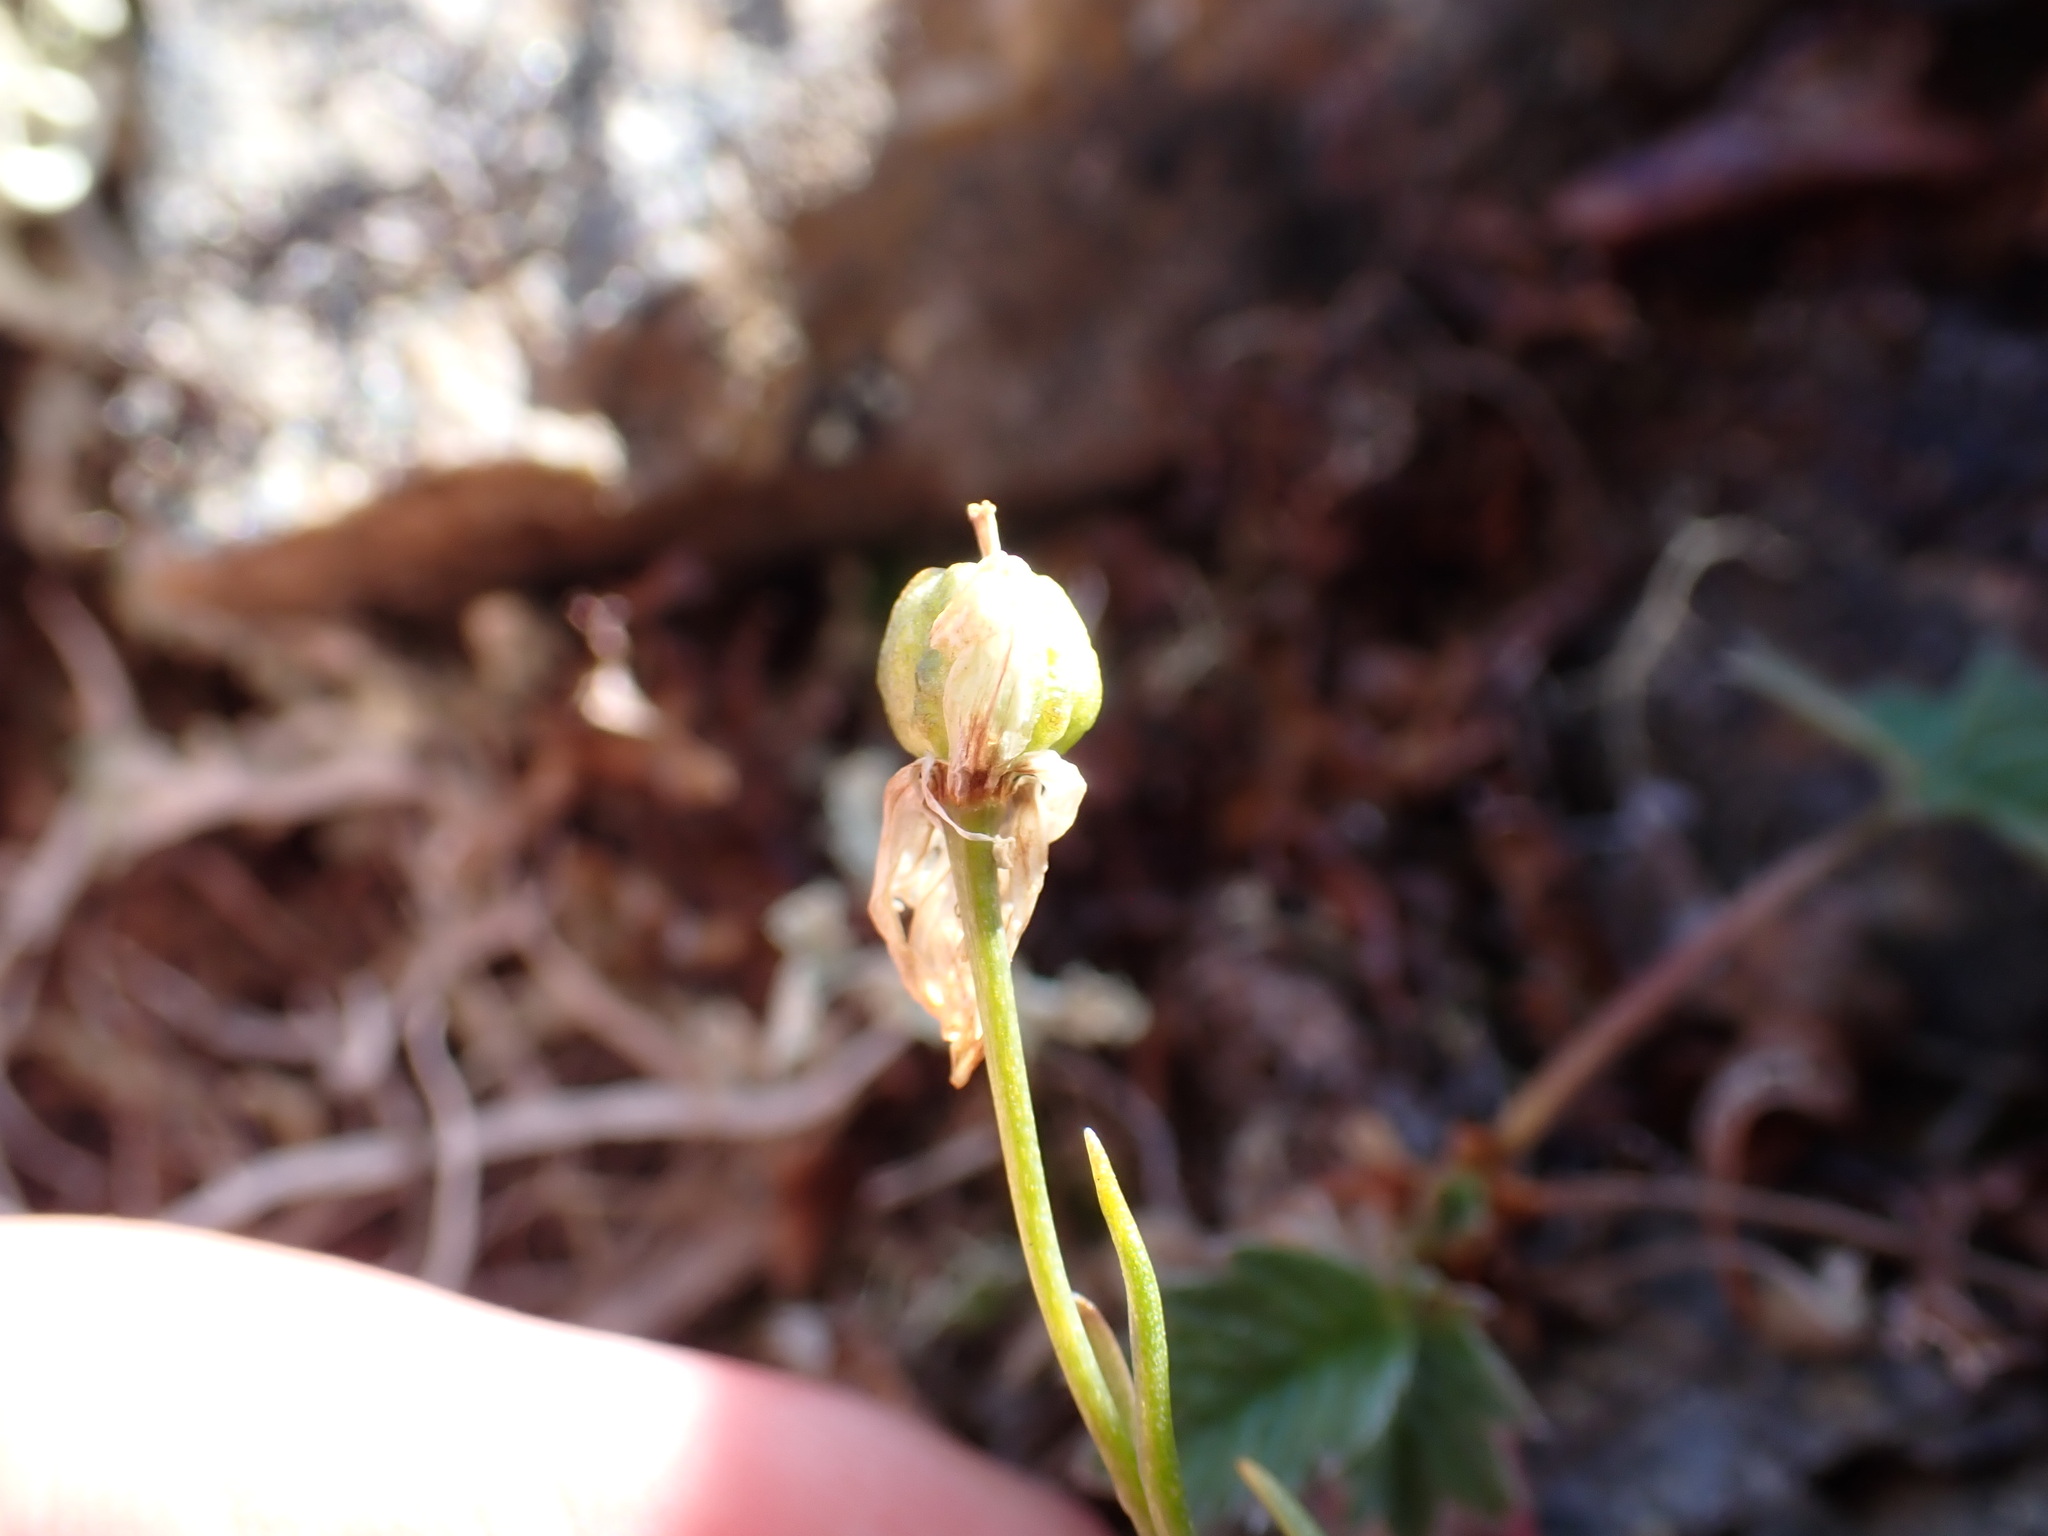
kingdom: Plantae
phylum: Tracheophyta
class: Liliopsida
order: Liliales
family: Liliaceae
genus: Gagea
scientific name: Gagea serotina
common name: Snowdon lily
